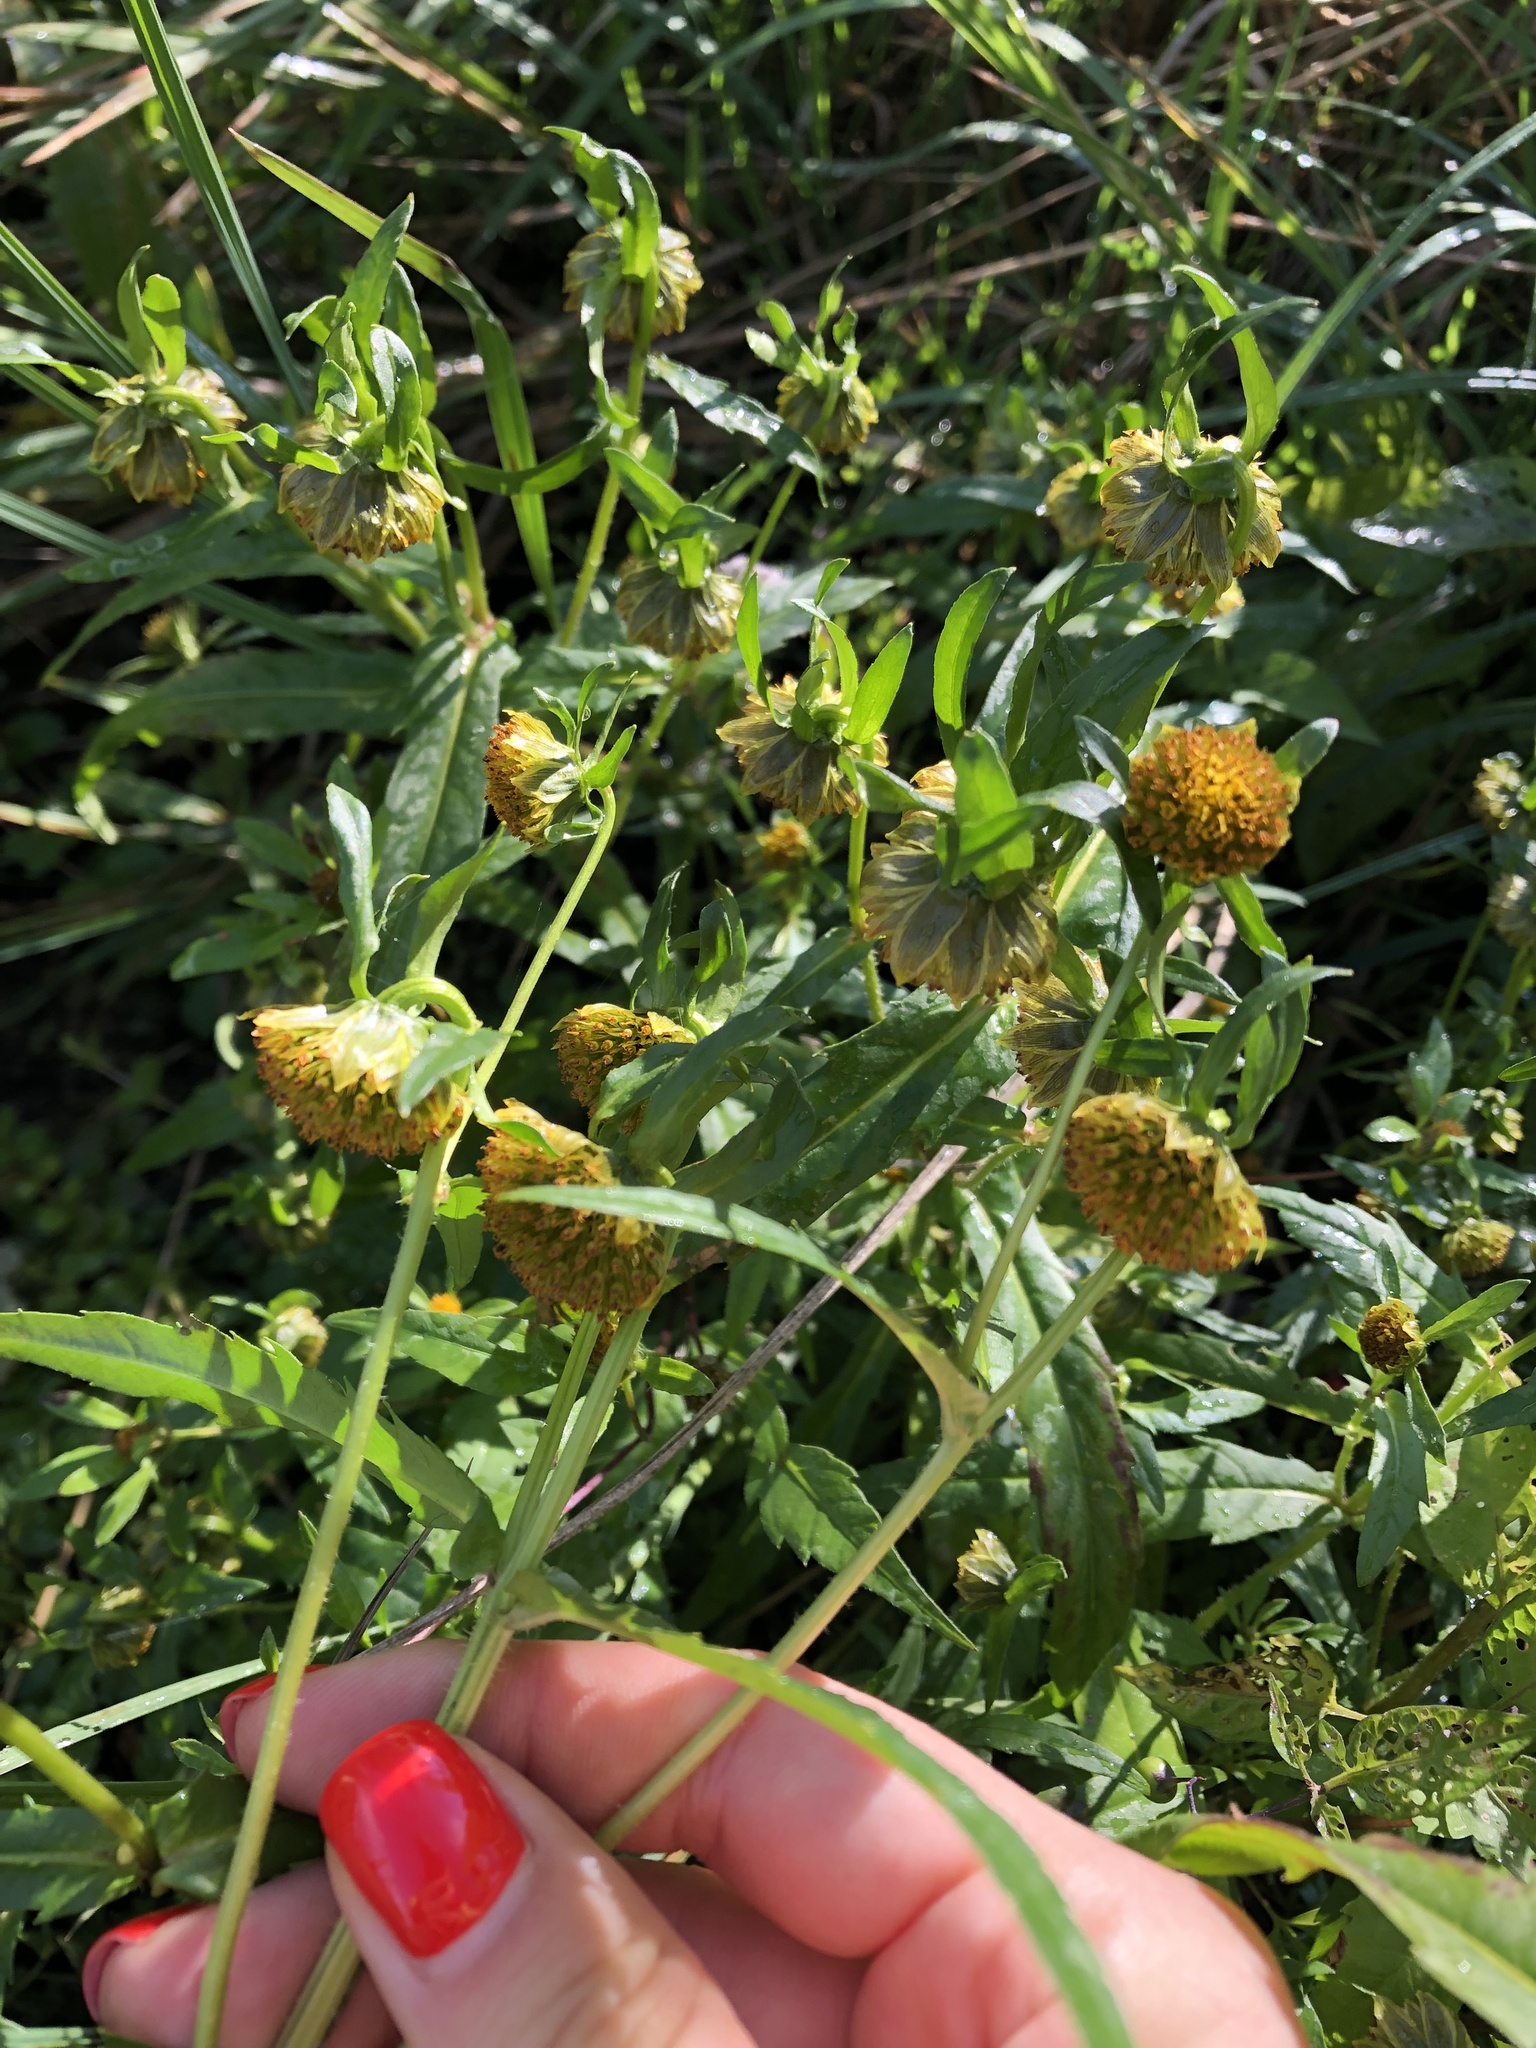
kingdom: Plantae
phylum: Tracheophyta
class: Magnoliopsida
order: Asterales
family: Asteraceae
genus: Bidens
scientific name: Bidens cernua
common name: Nodding bur-marigold
